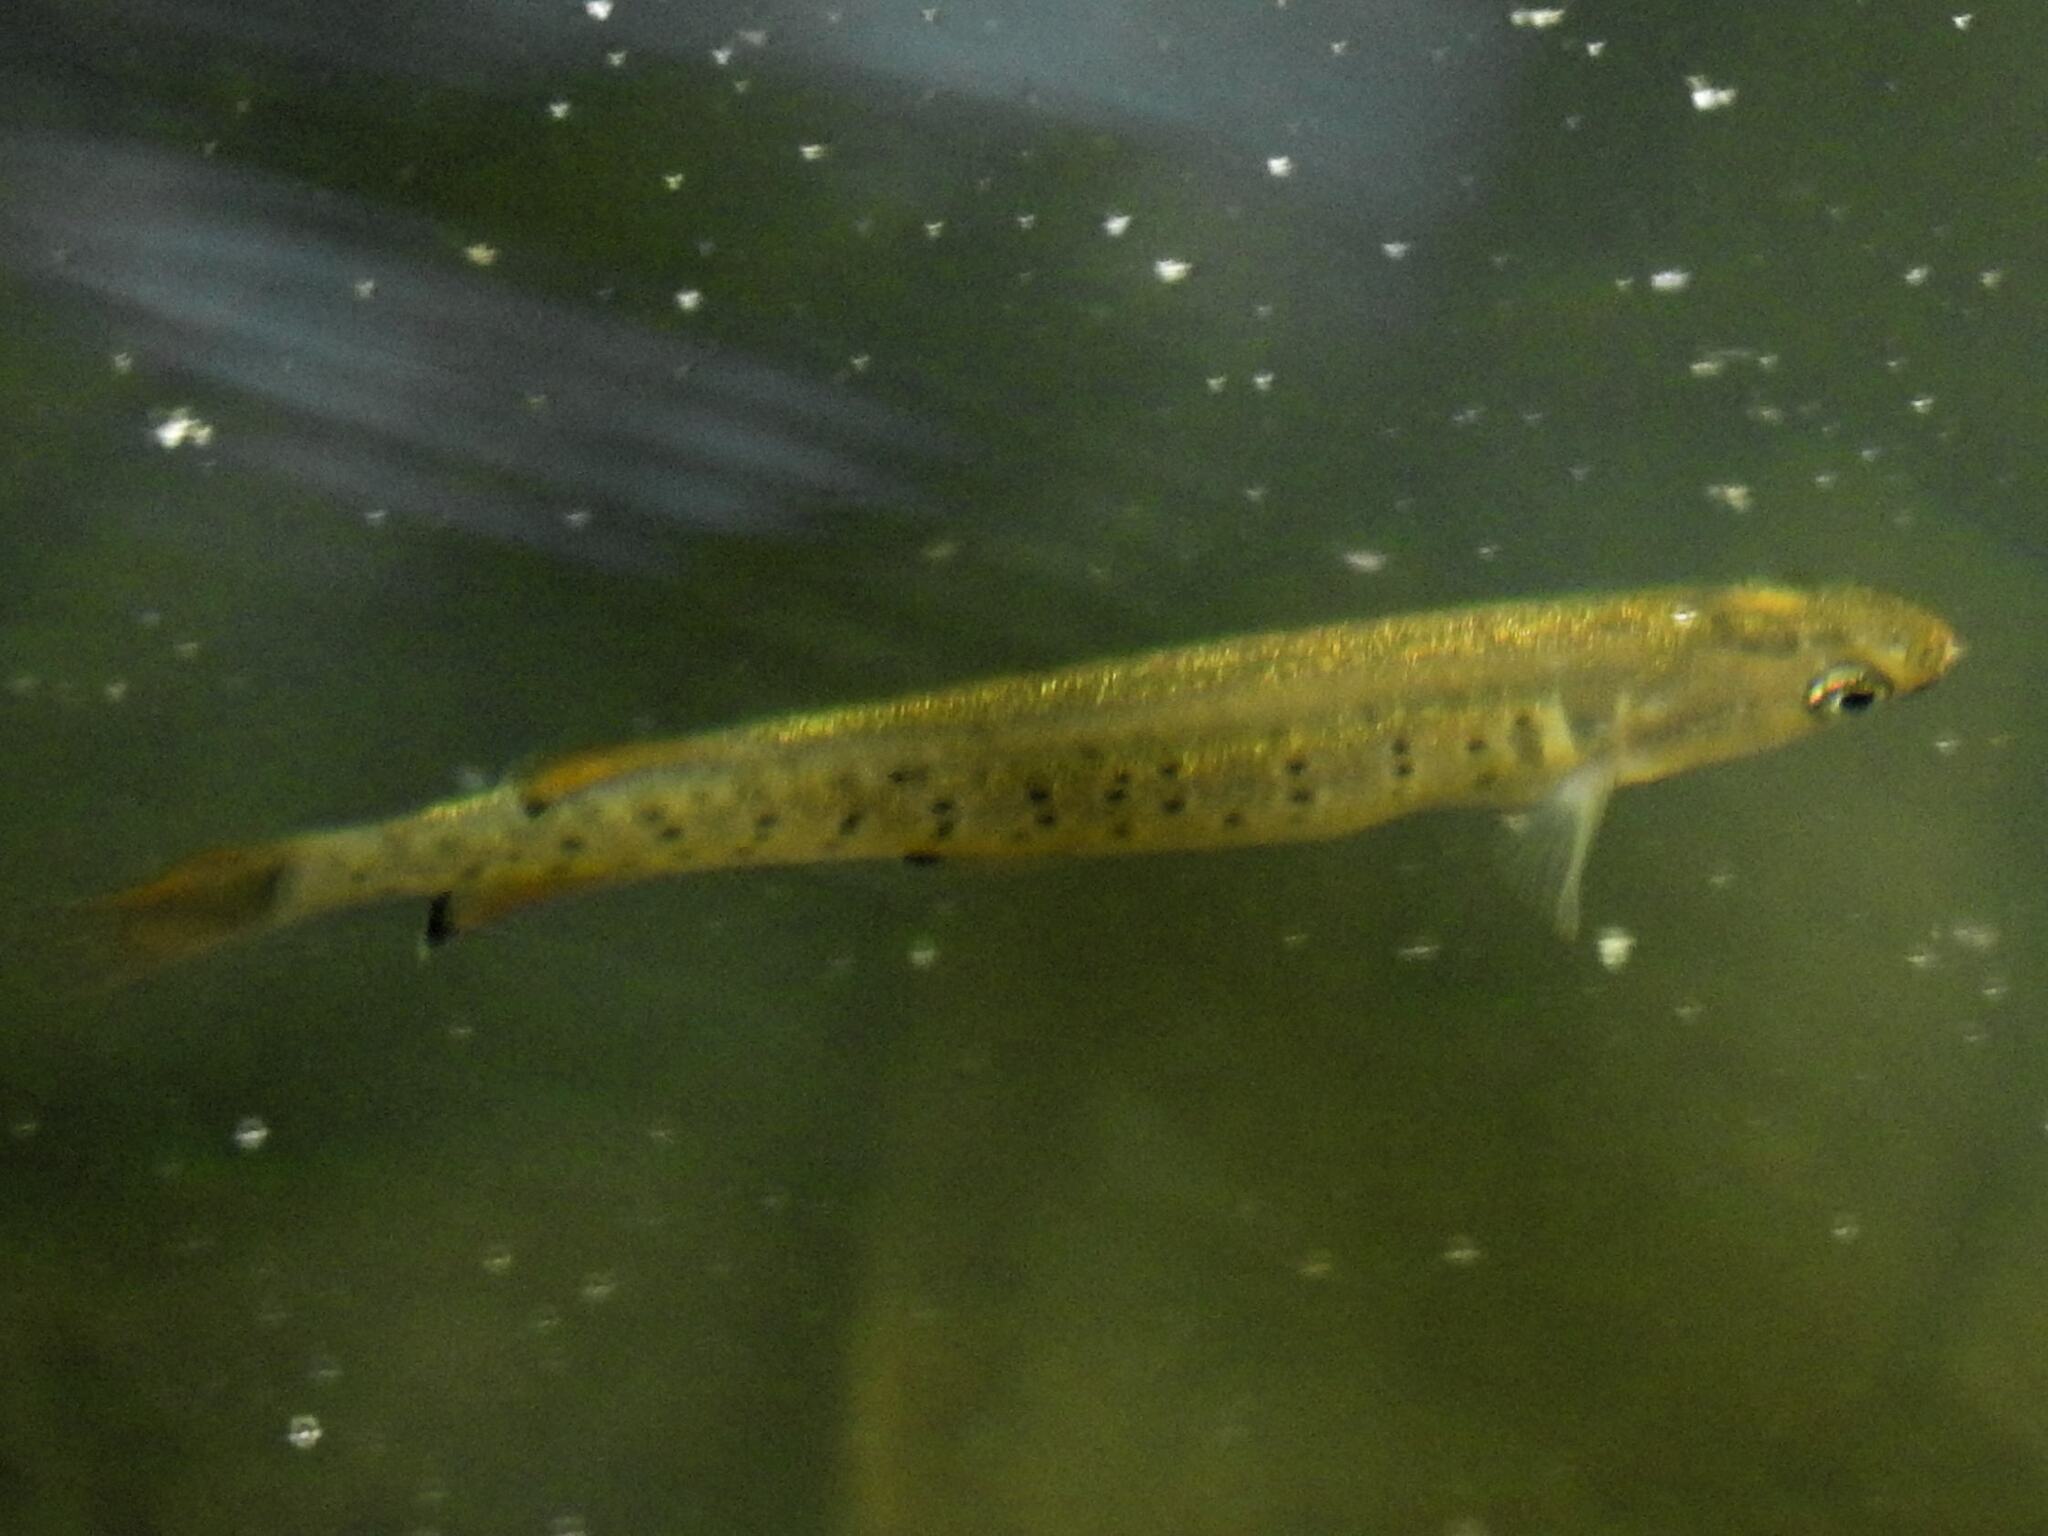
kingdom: Animalia
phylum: Chordata
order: Osmeriformes
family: Galaxiidae
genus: Galaxias
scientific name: Galaxias truttaceus
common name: Spotted galaxias
